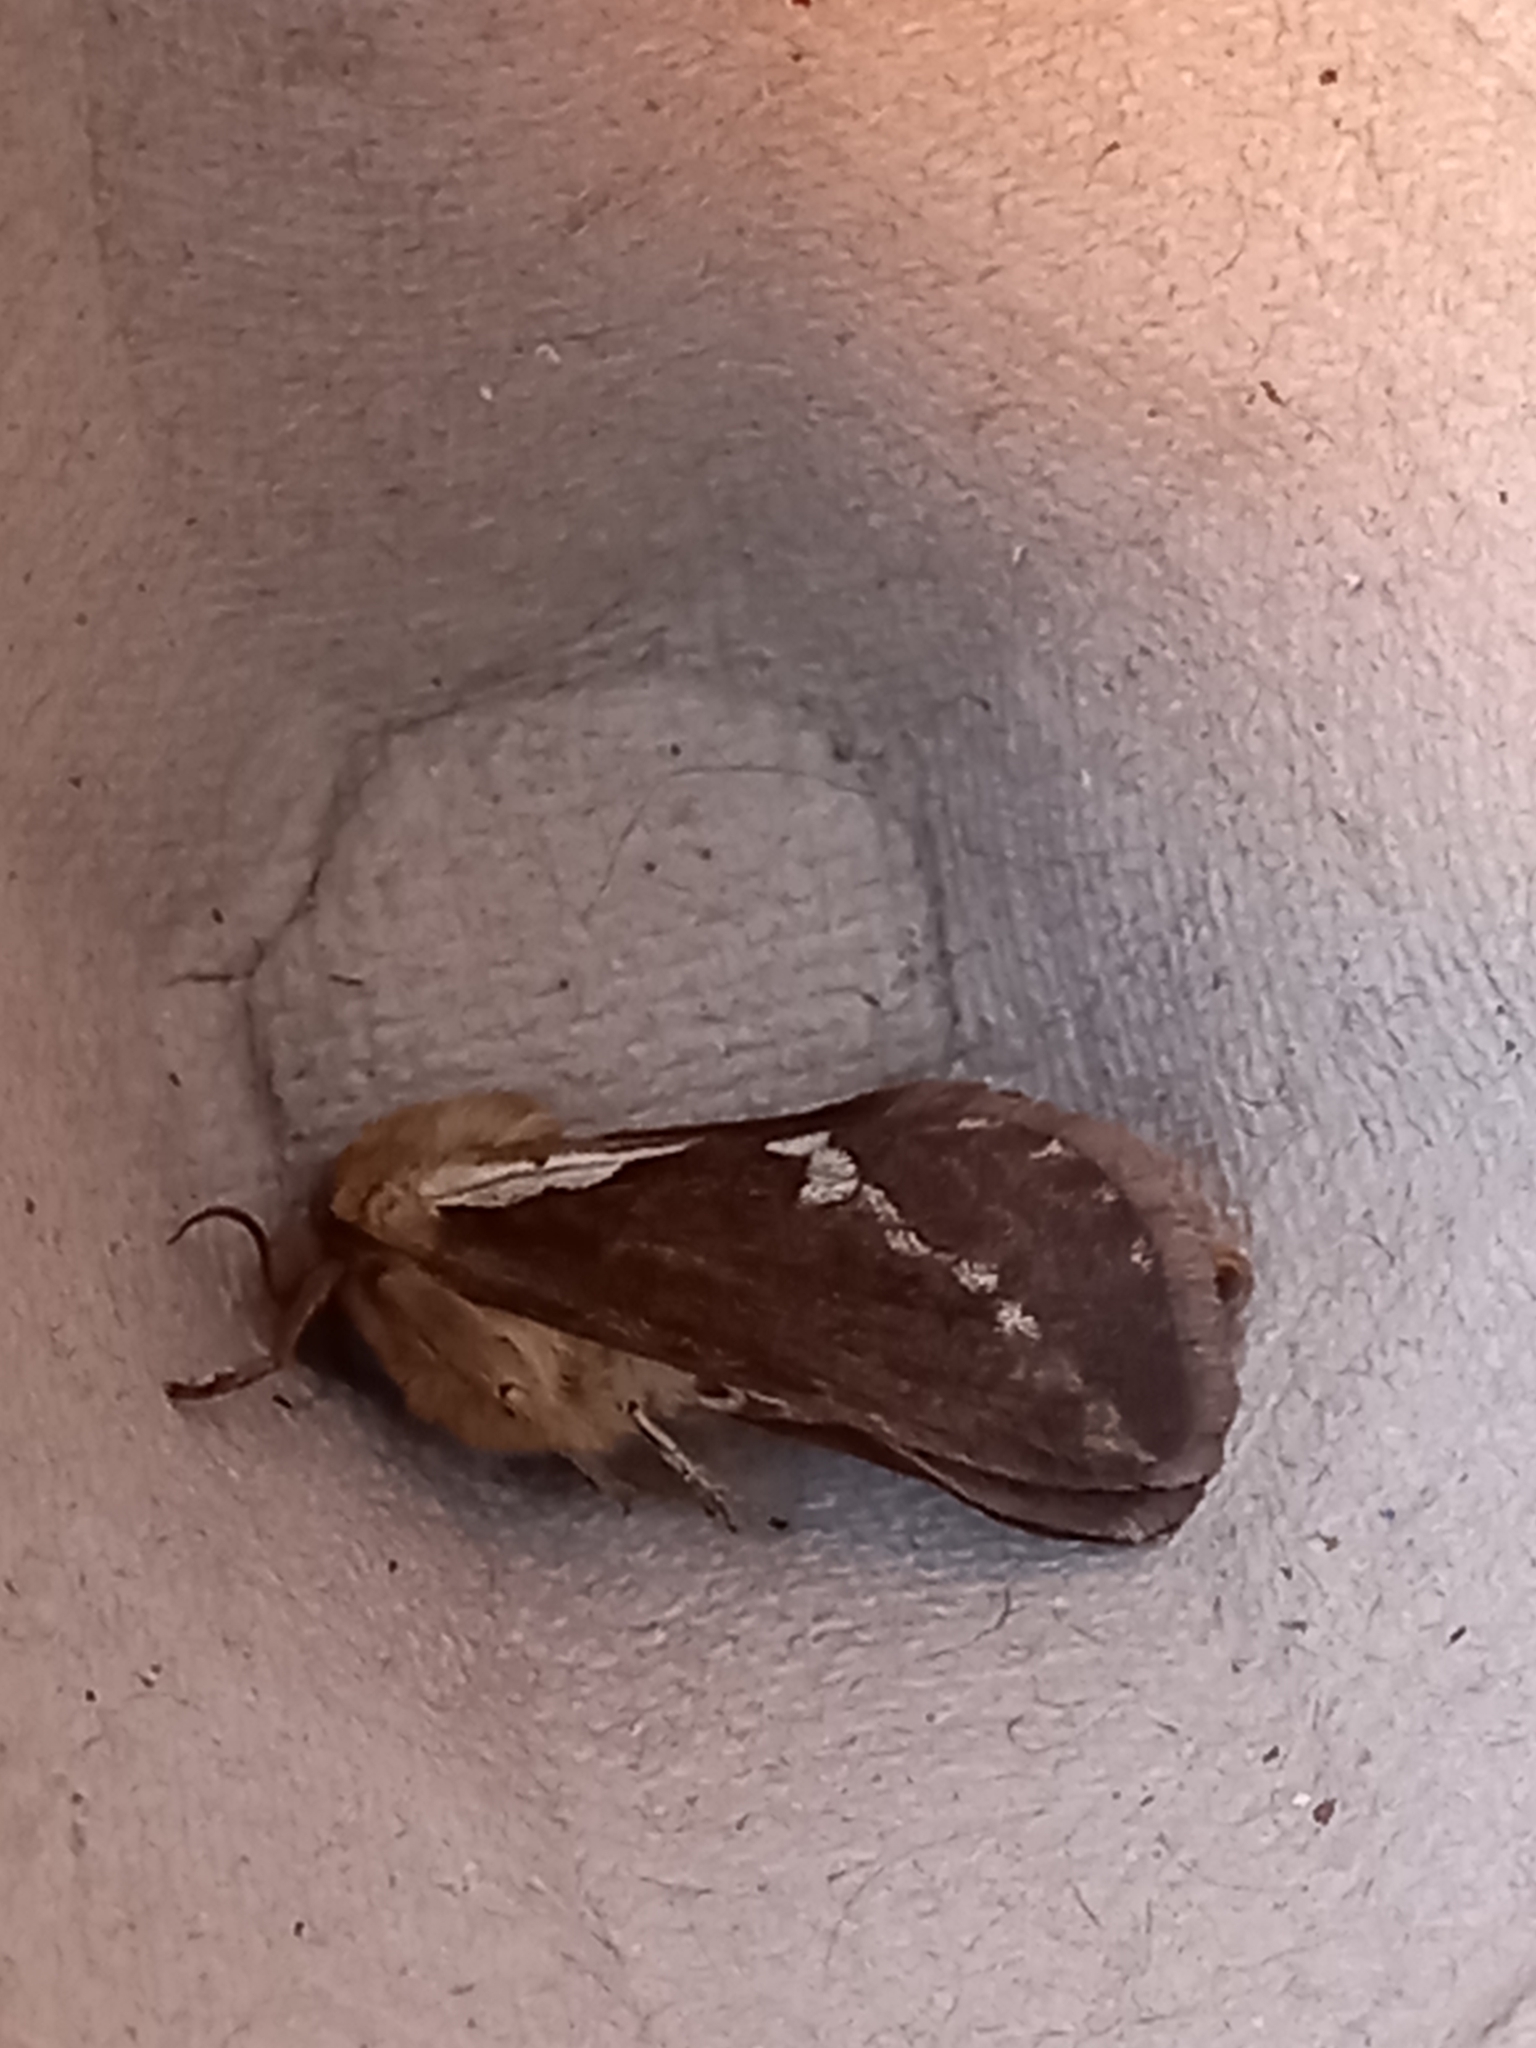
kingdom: Animalia
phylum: Arthropoda
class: Insecta
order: Lepidoptera
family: Hepialidae
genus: Korscheltellus
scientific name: Korscheltellus lupulina
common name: Common swift
